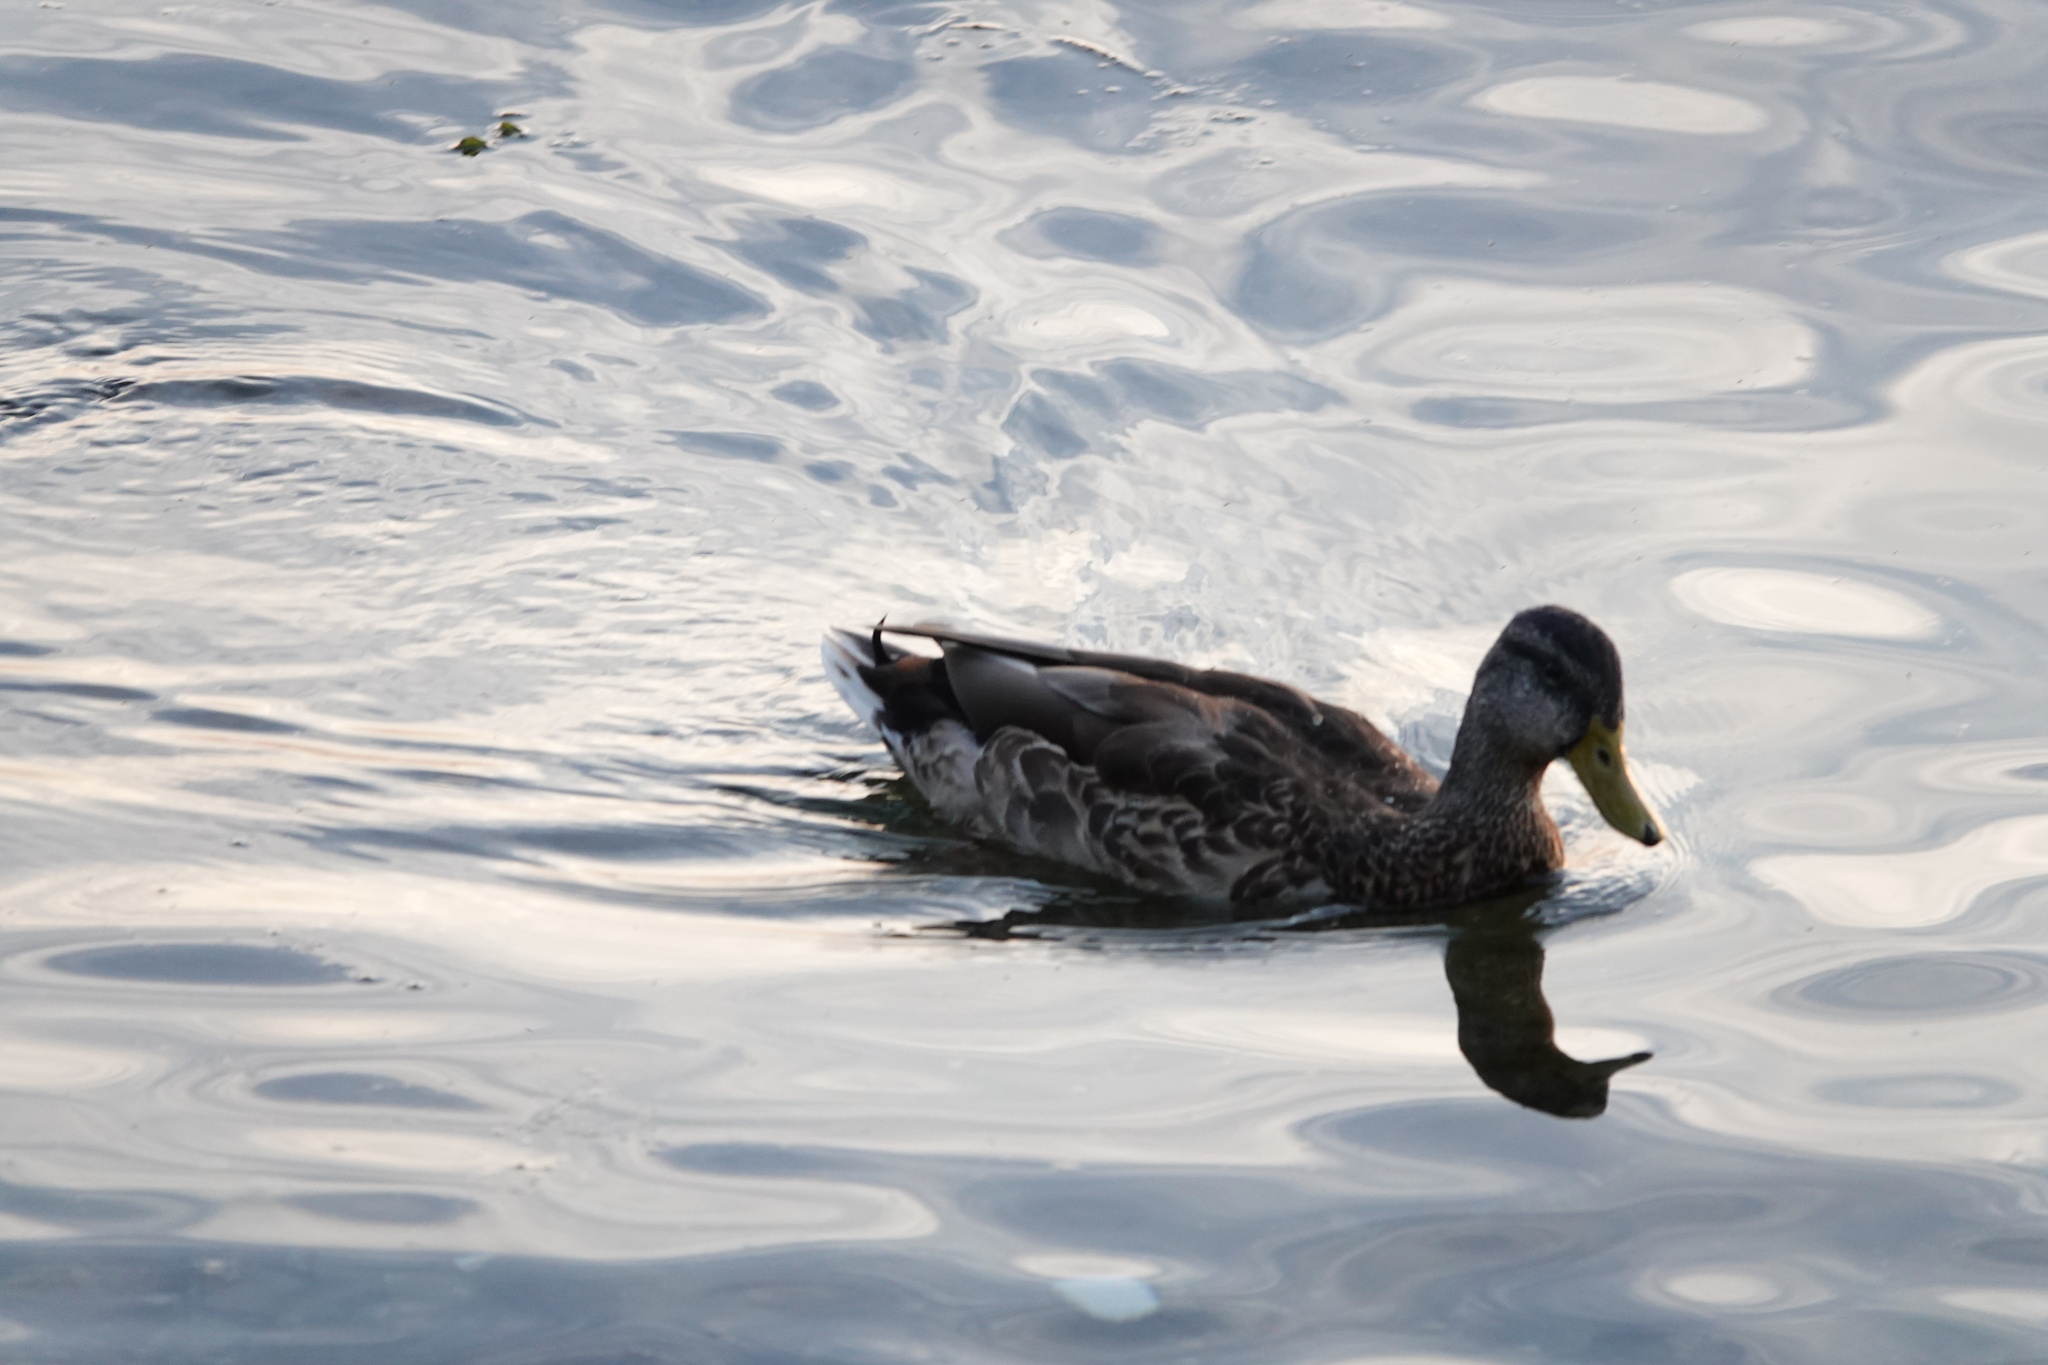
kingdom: Animalia
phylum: Chordata
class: Aves
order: Anseriformes
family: Anatidae
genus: Anas
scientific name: Anas platyrhynchos
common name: Mallard
